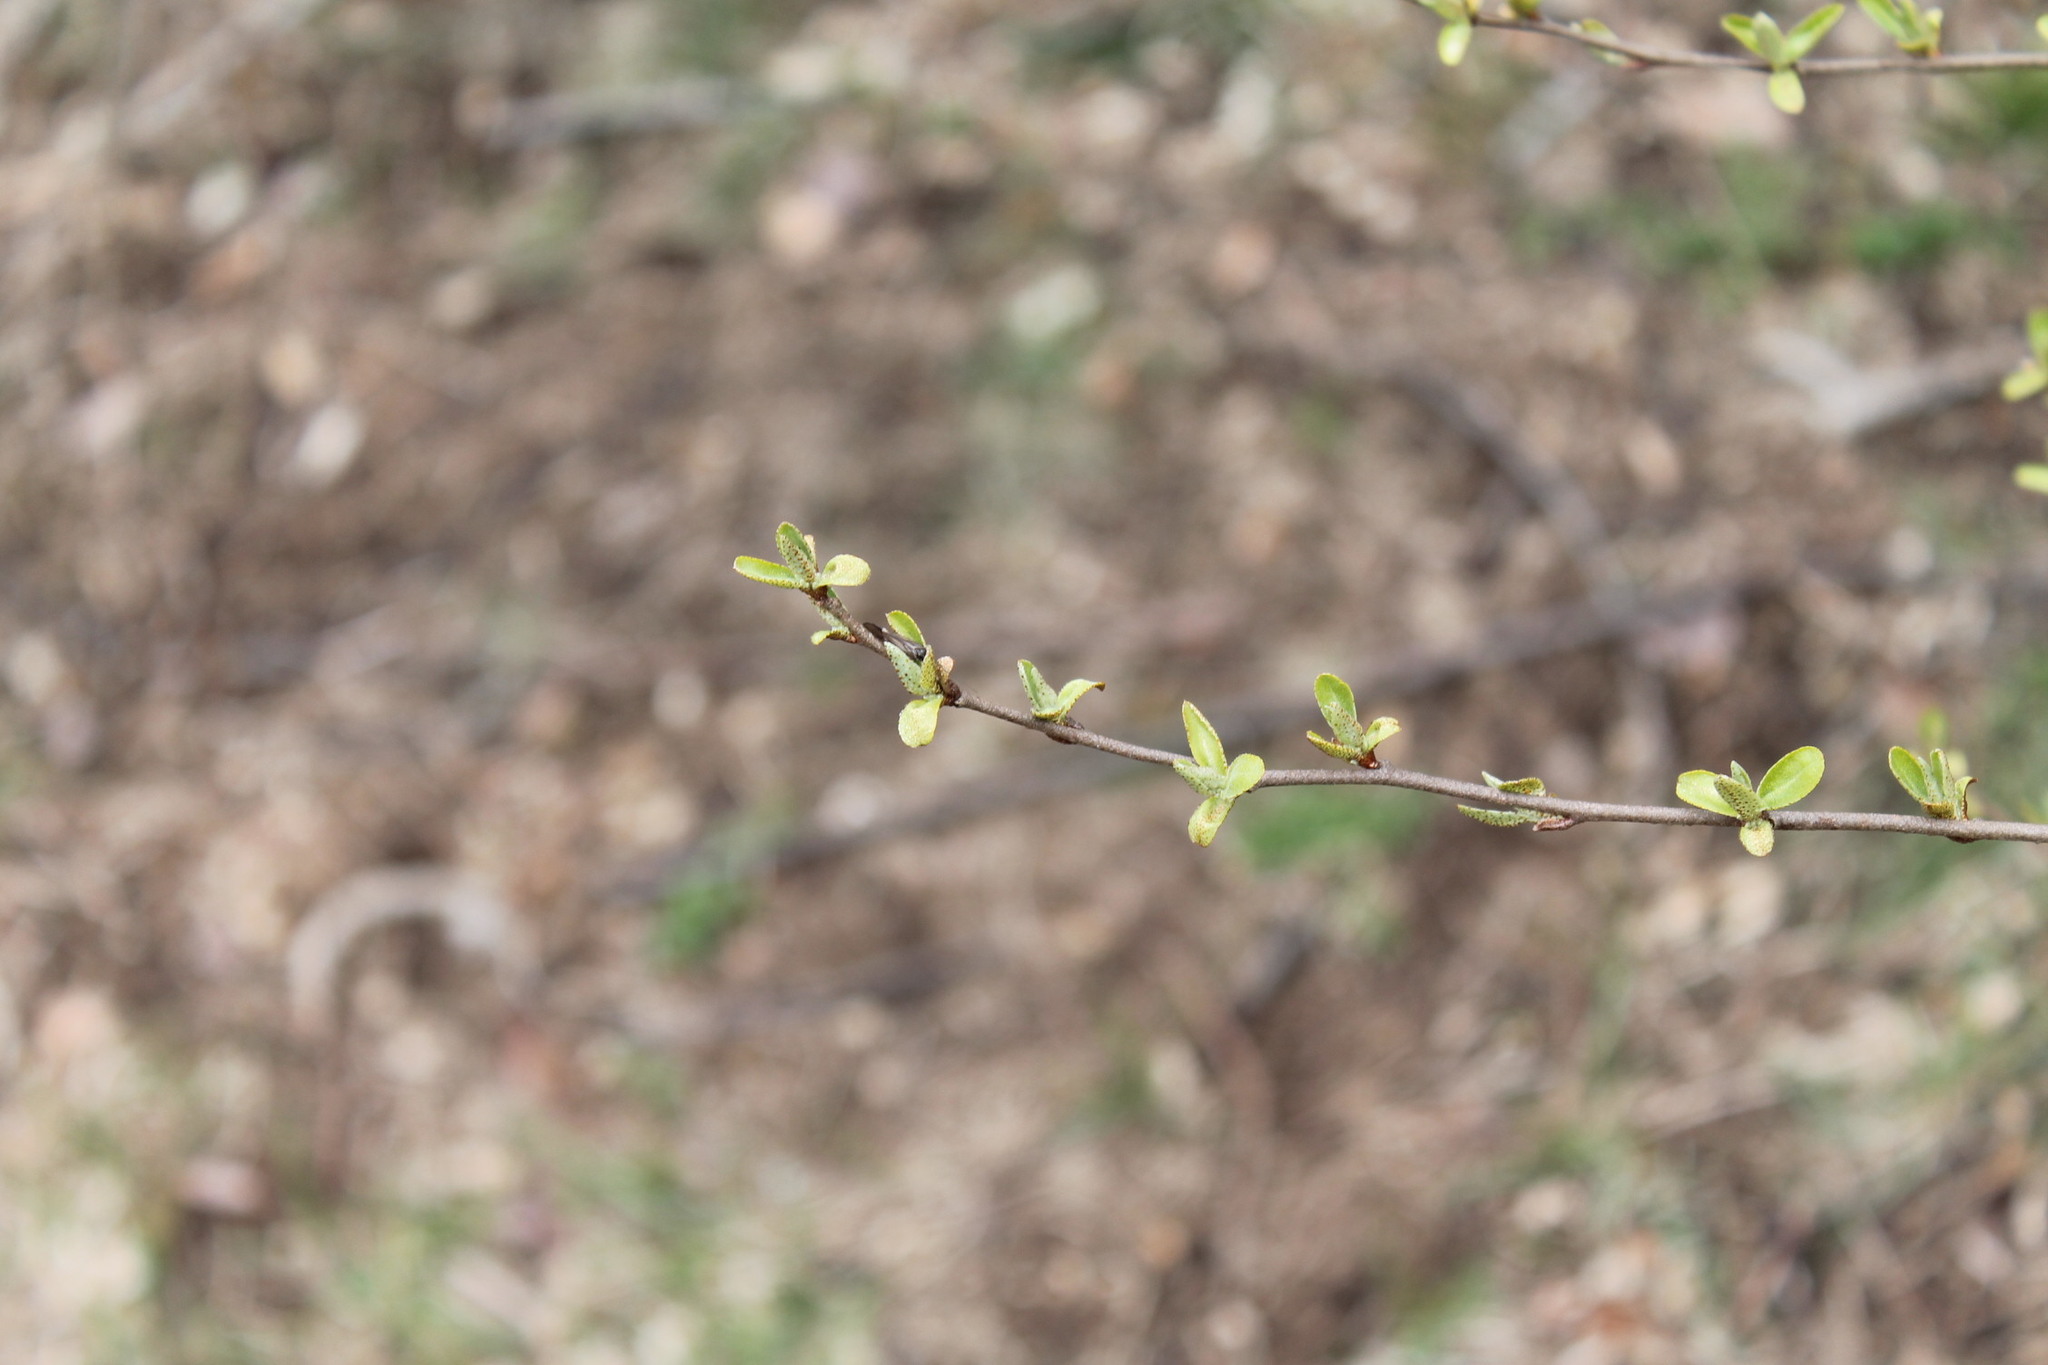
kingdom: Plantae
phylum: Tracheophyta
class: Magnoliopsida
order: Rosales
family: Elaeagnaceae
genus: Elaeagnus
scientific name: Elaeagnus umbellata
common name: Autumn olive
